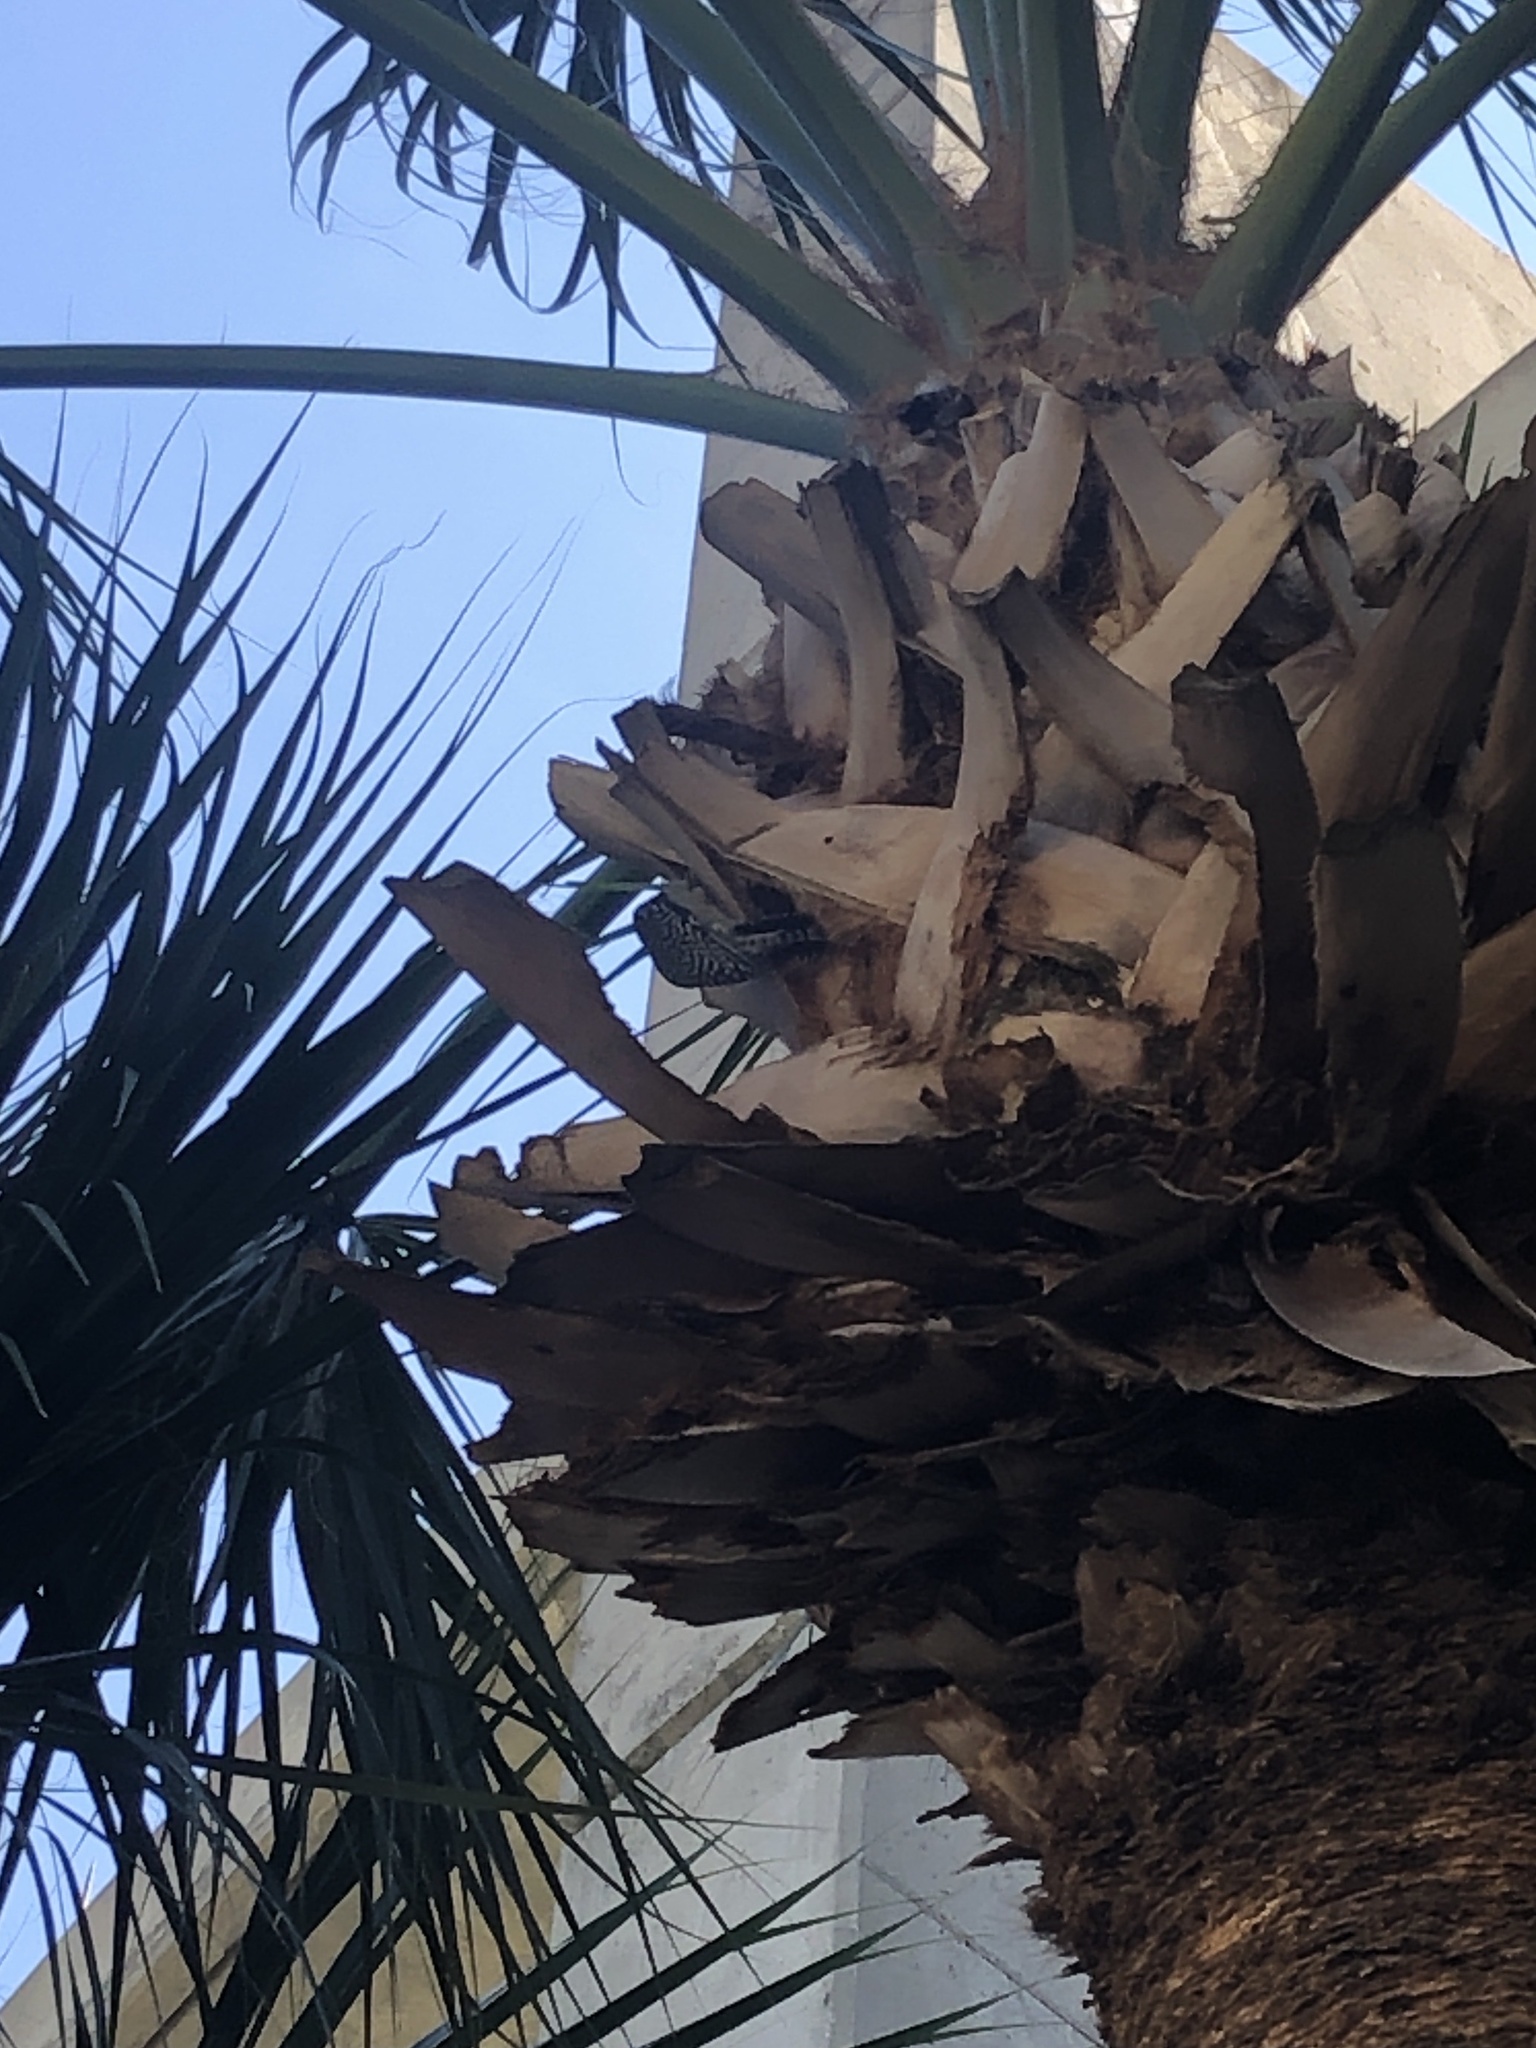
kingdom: Animalia
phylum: Chordata
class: Aves
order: Piciformes
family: Picidae
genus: Melanerpes
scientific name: Melanerpes carolinus
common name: Red-bellied woodpecker
